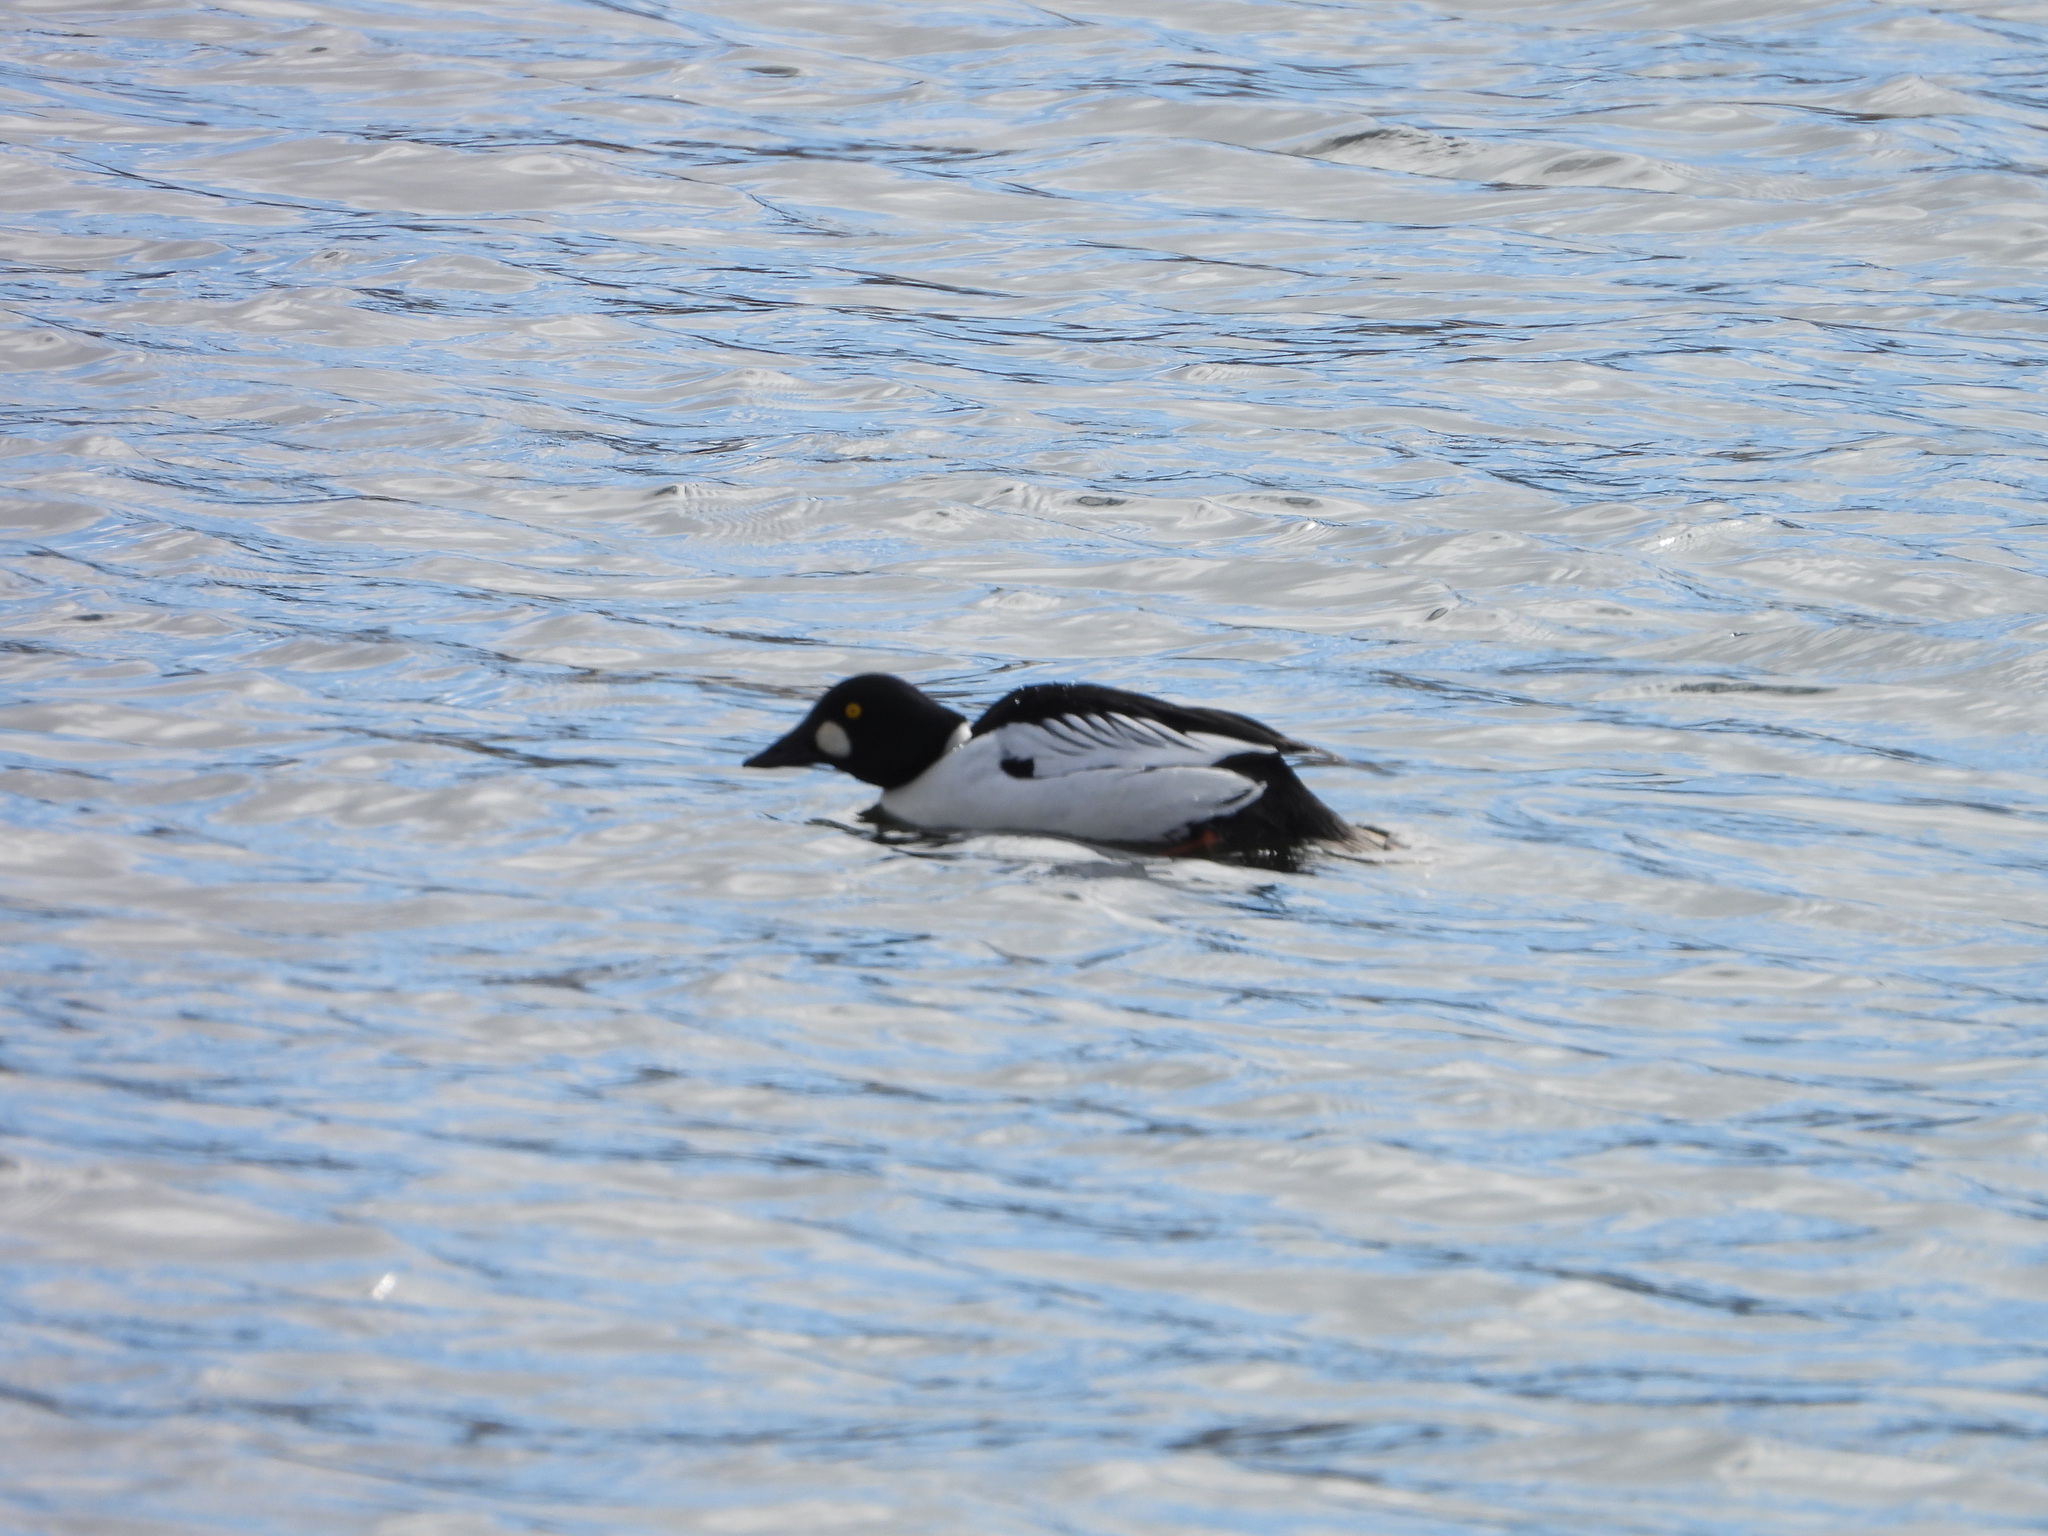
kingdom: Animalia
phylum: Chordata
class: Aves
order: Anseriformes
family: Anatidae
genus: Bucephala
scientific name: Bucephala clangula
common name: Common goldeneye
